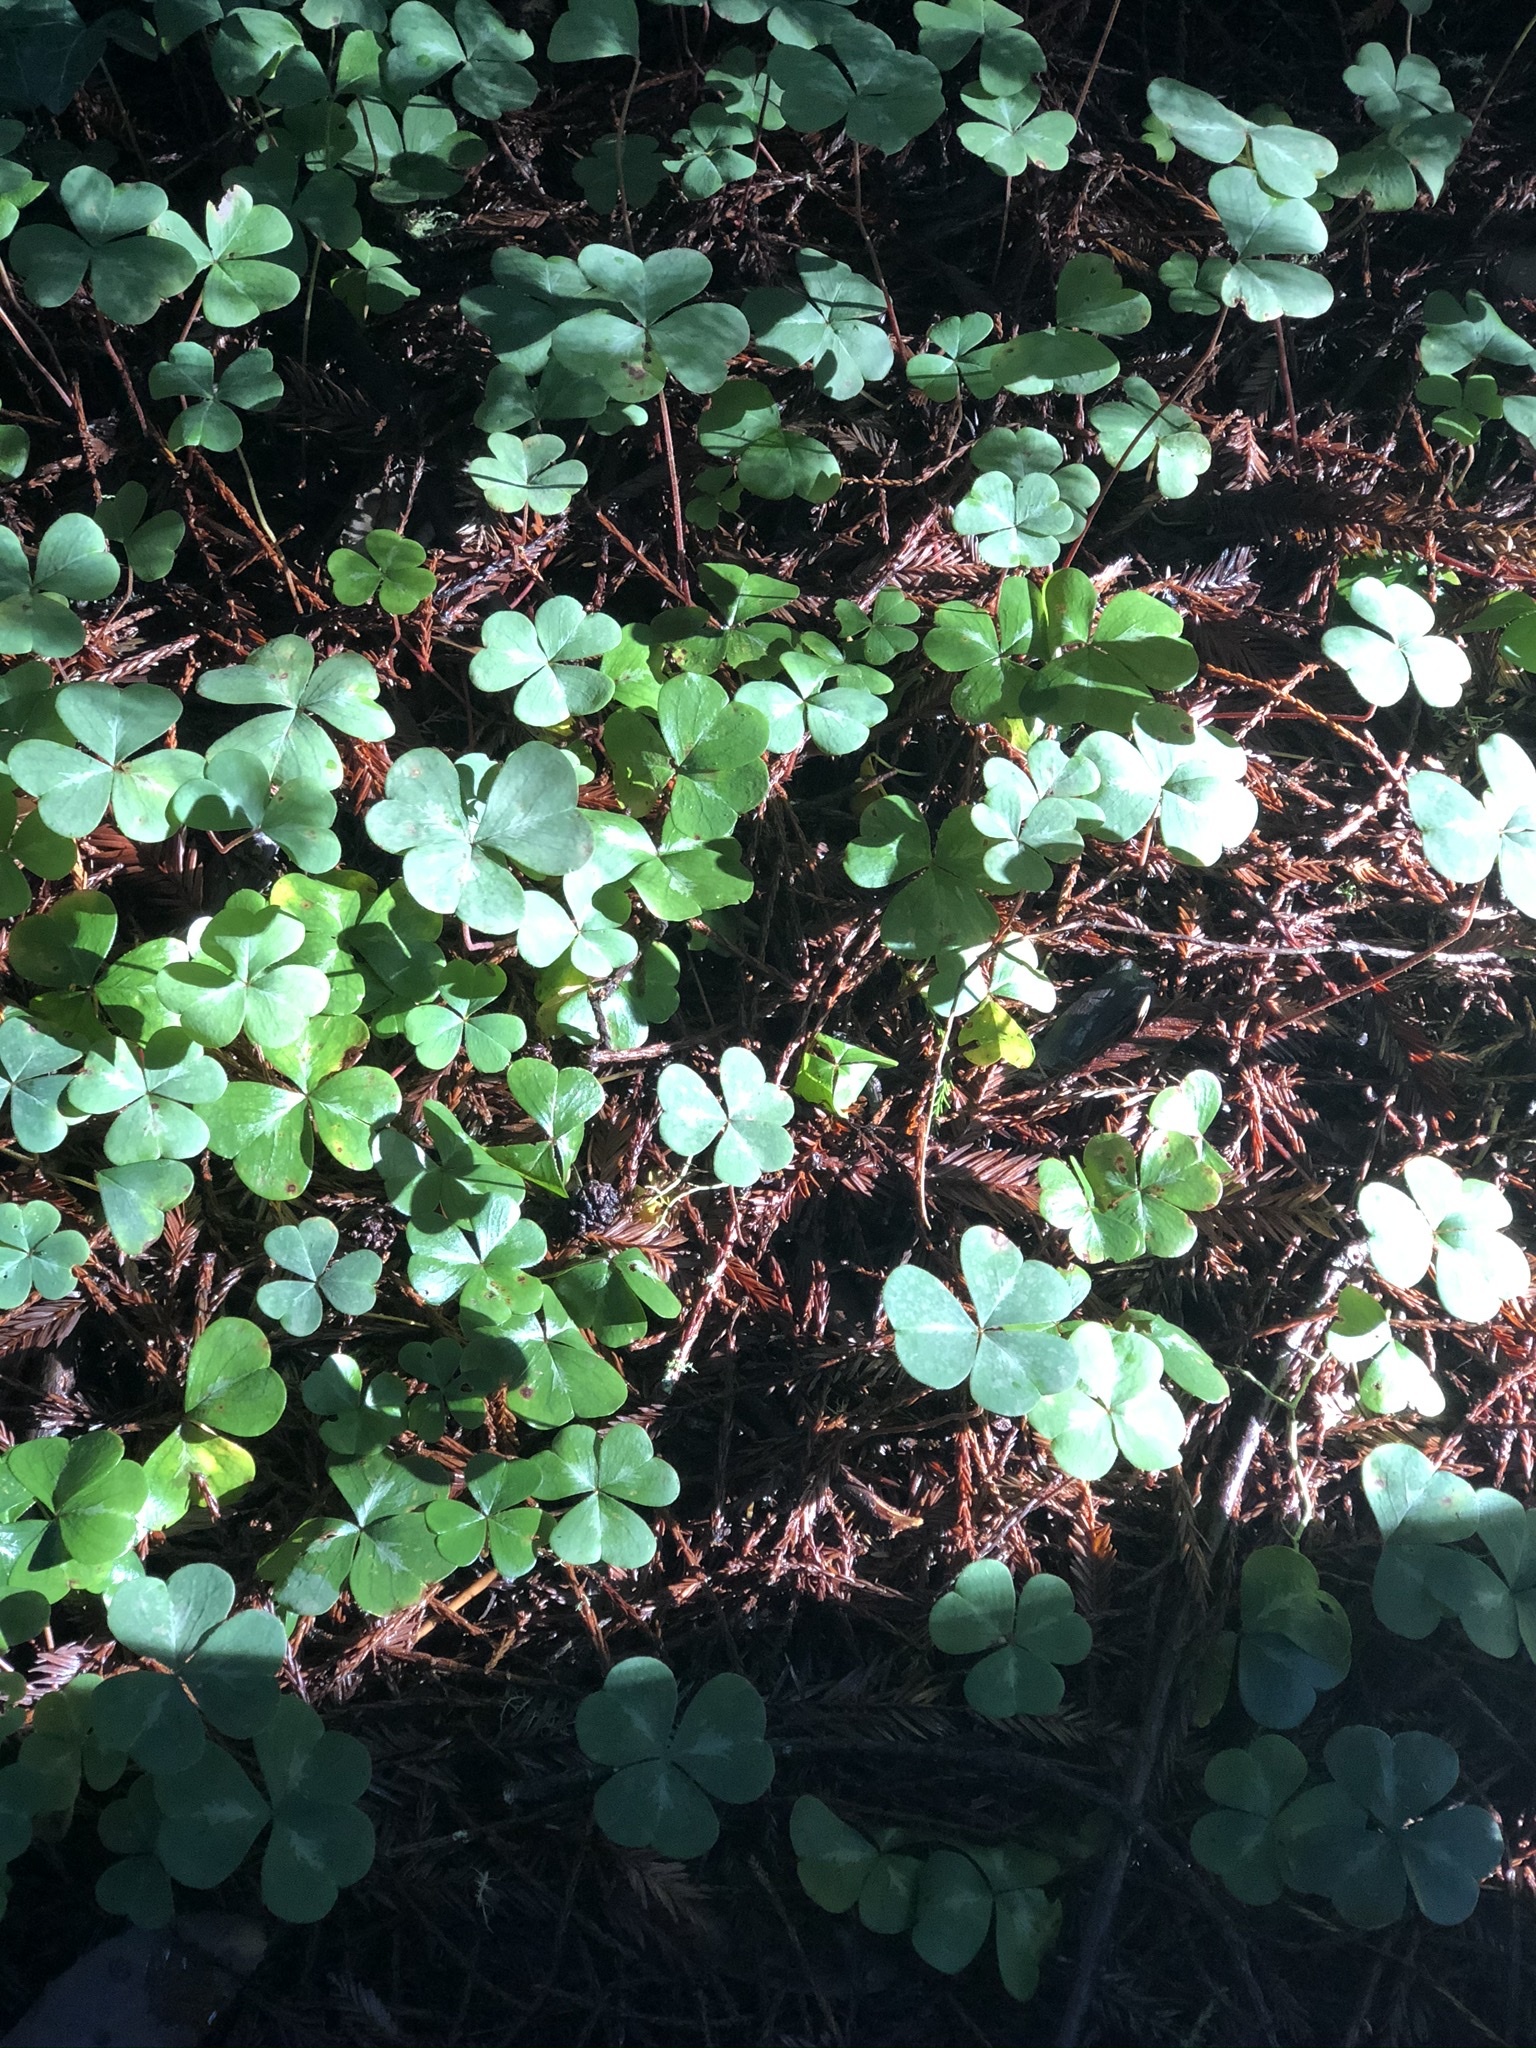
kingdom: Plantae
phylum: Tracheophyta
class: Magnoliopsida
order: Oxalidales
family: Oxalidaceae
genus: Oxalis
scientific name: Oxalis oregana
